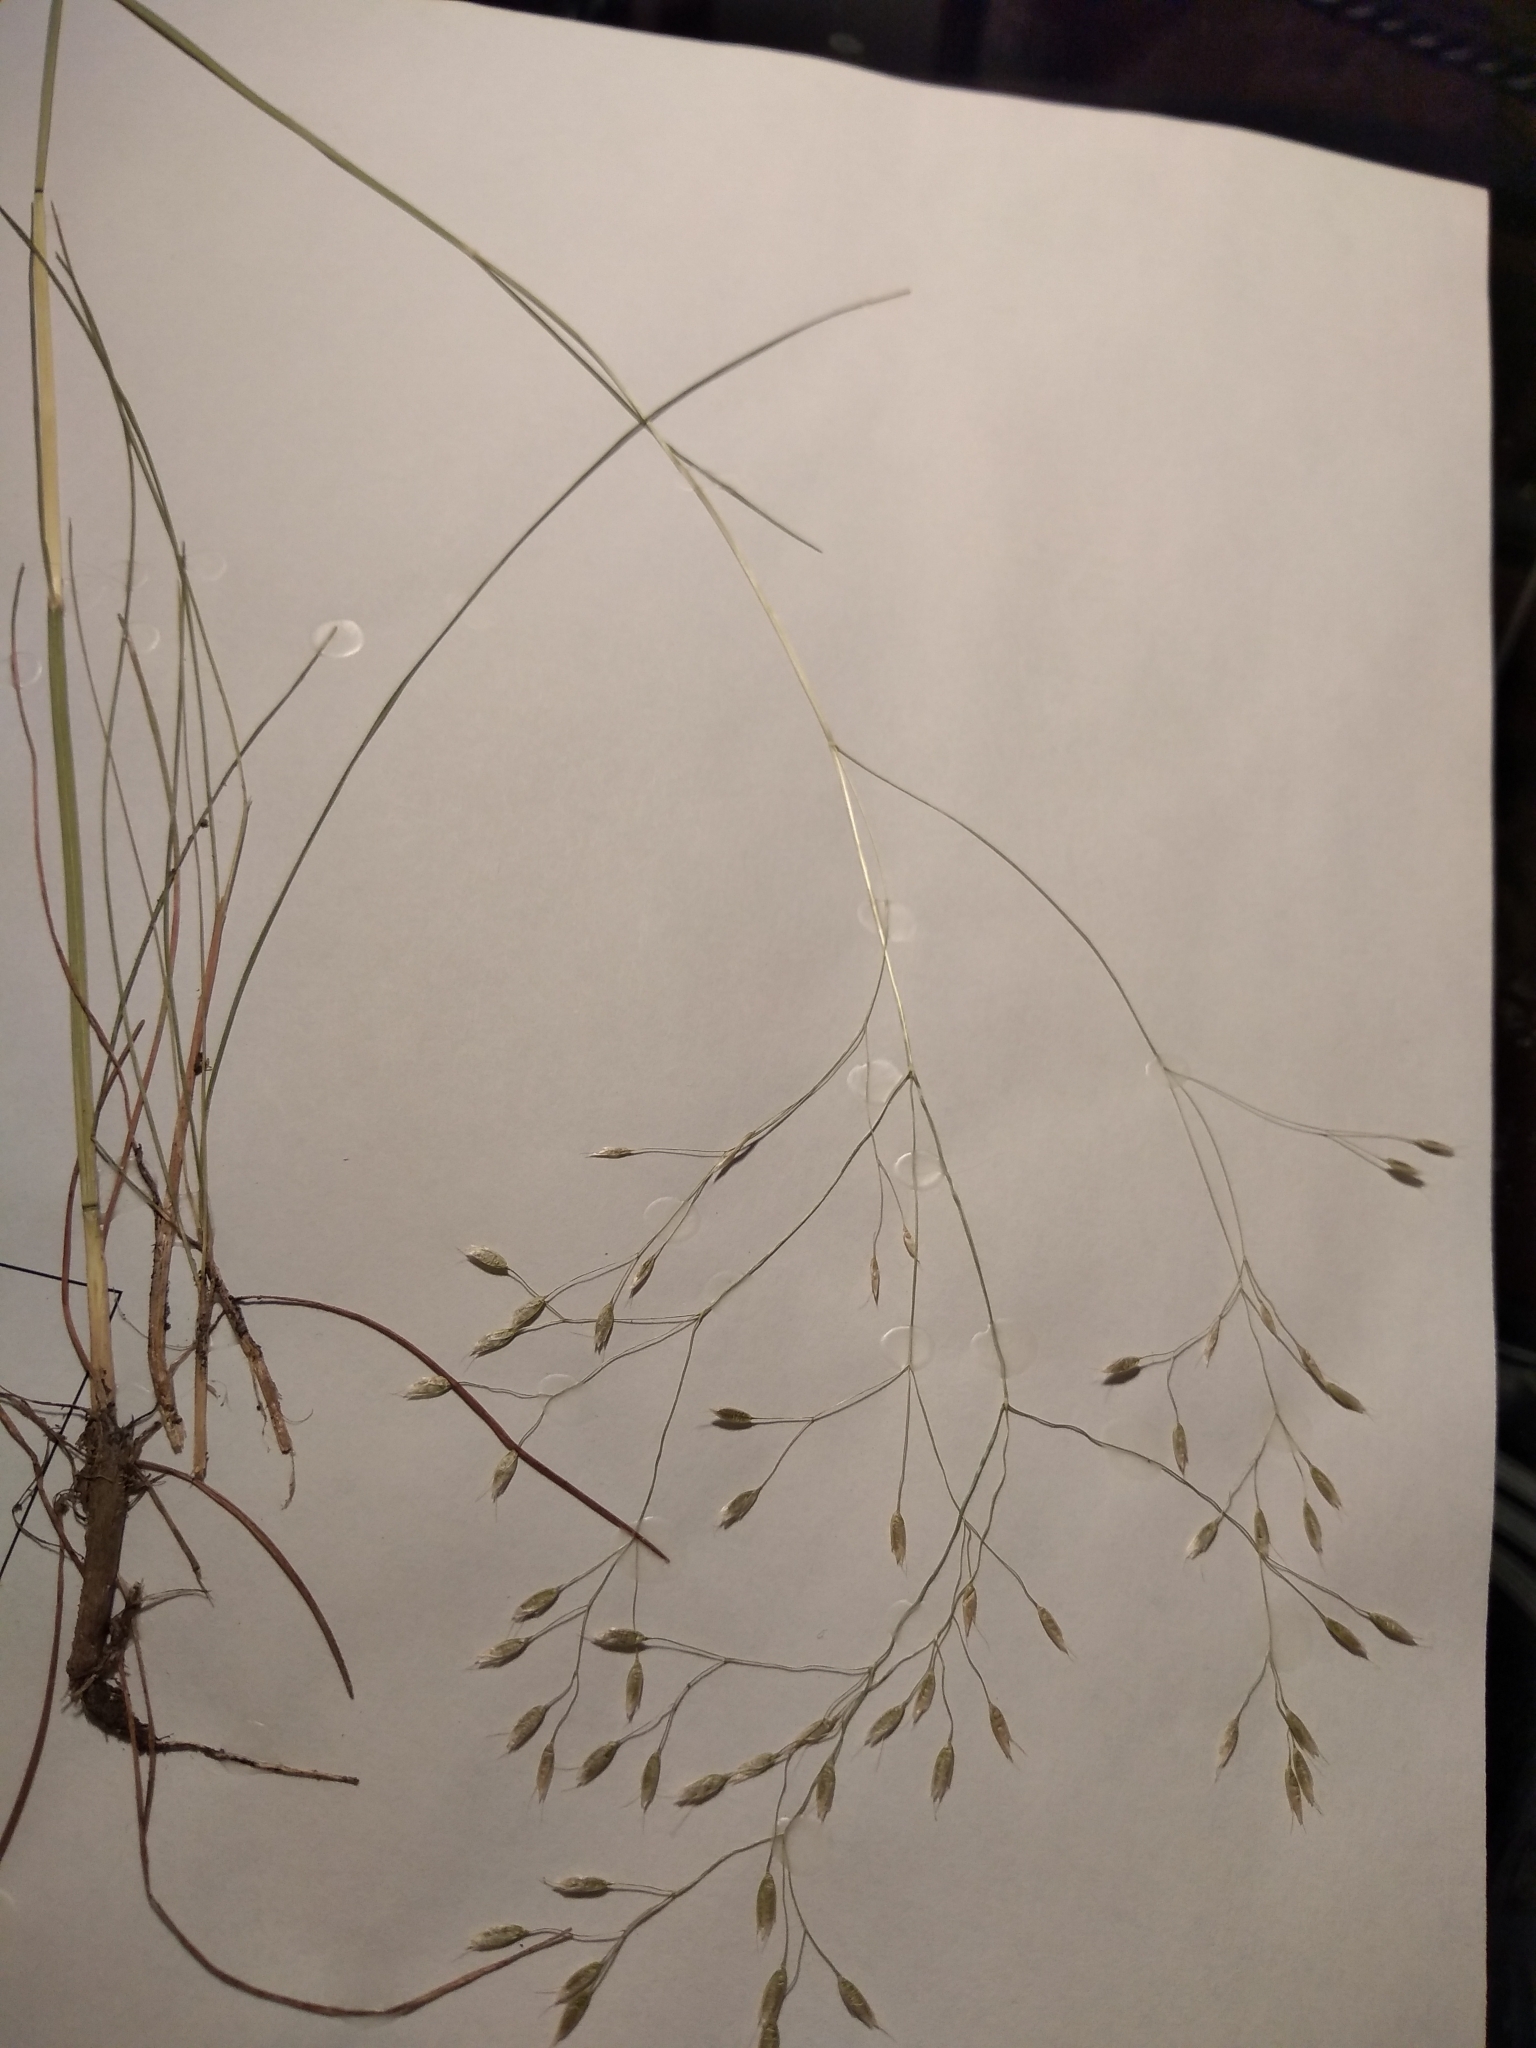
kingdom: Plantae
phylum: Tracheophyta
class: Liliopsida
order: Poales
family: Poaceae
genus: Avenella
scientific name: Avenella flexuosa
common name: Wavy hairgrass
